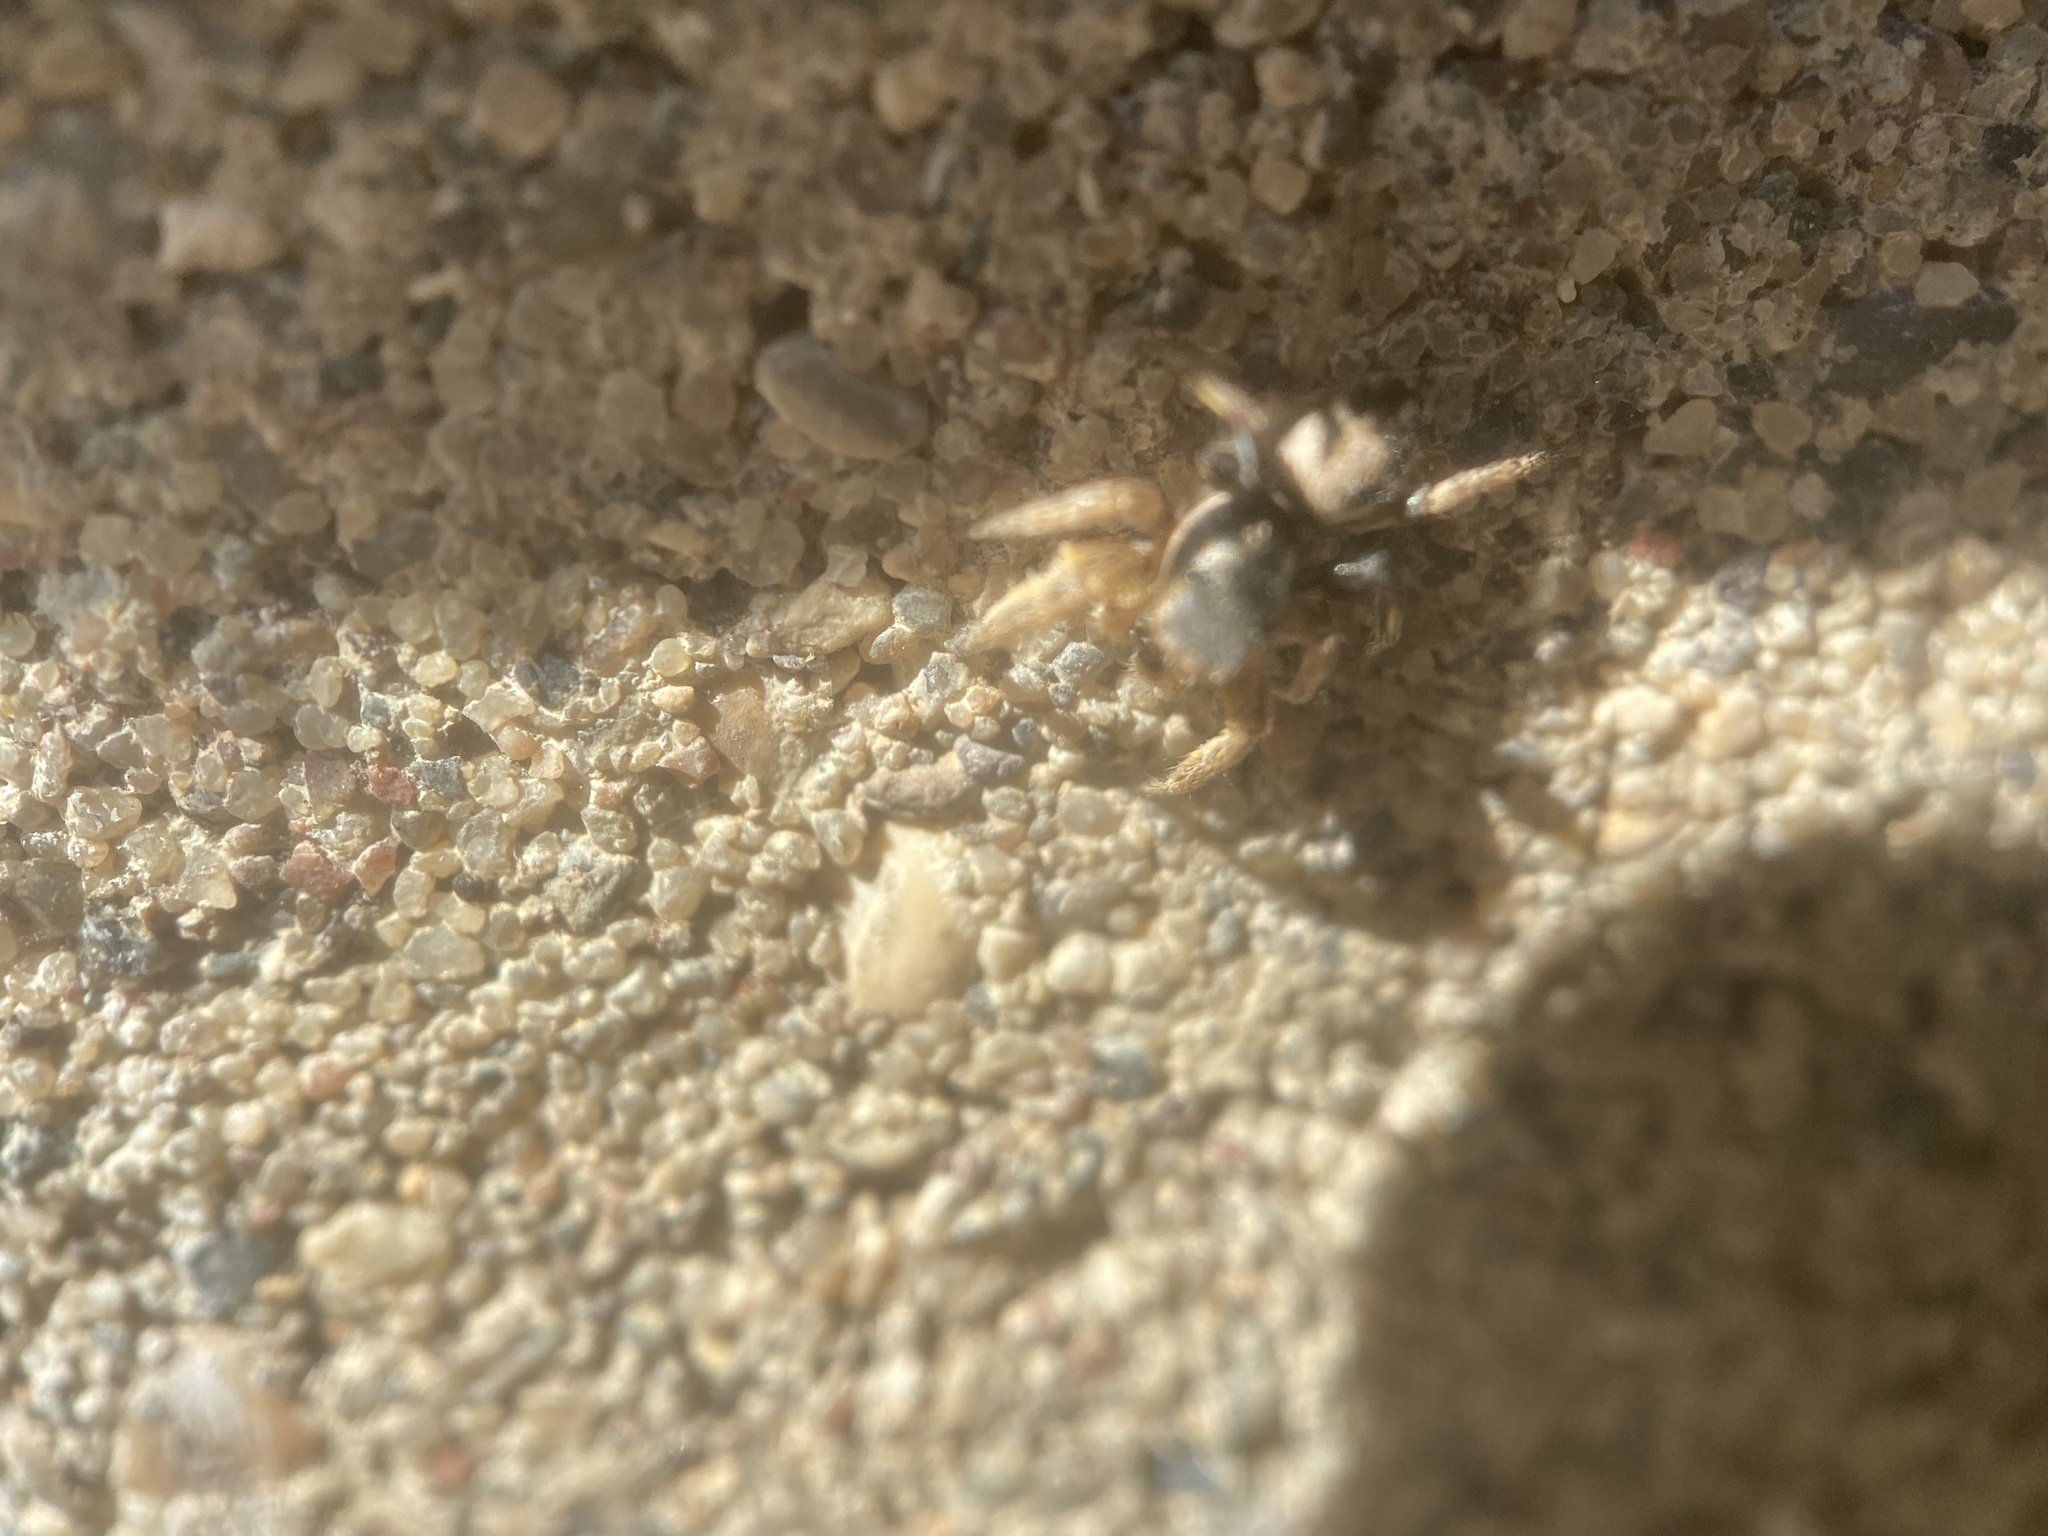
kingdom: Animalia
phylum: Arthropoda
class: Arachnida
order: Araneae
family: Salticidae
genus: Habronattus
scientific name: Habronattus captiosus
